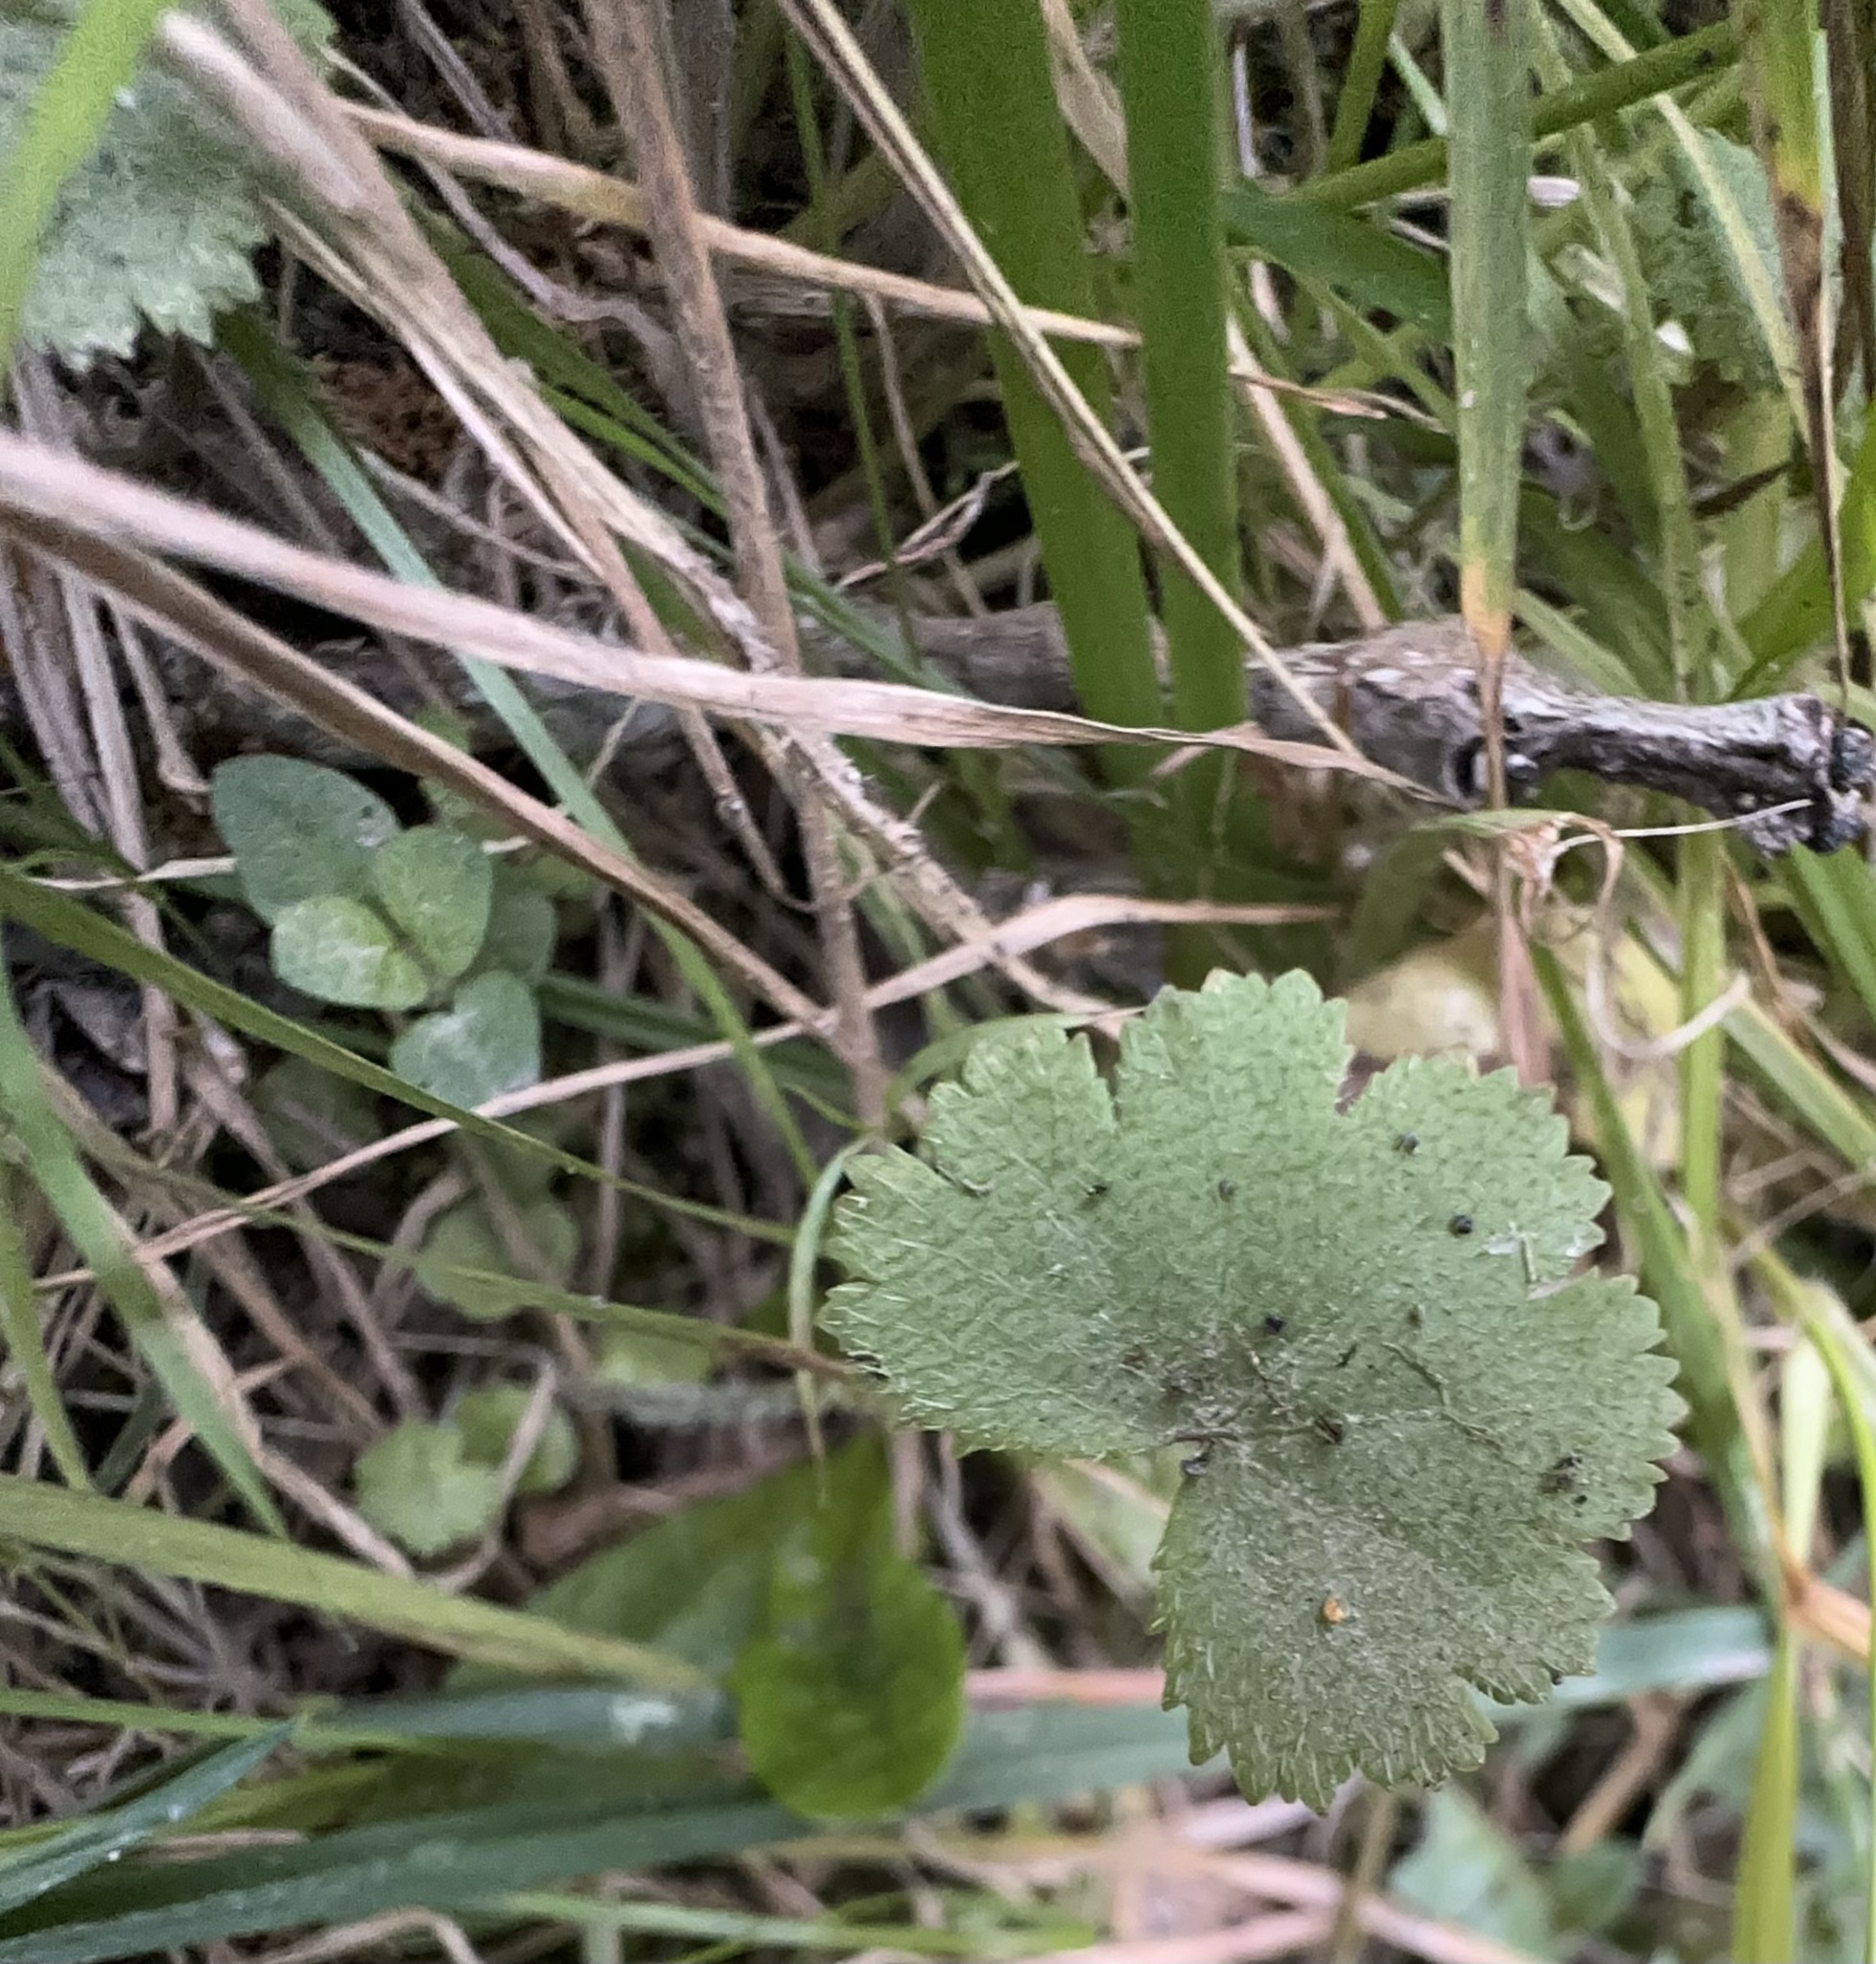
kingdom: Plantae
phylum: Tracheophyta
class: Magnoliopsida
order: Apiales
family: Araliaceae
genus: Hydrocotyle
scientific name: Hydrocotyle moschata
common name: Hairy pennywort
